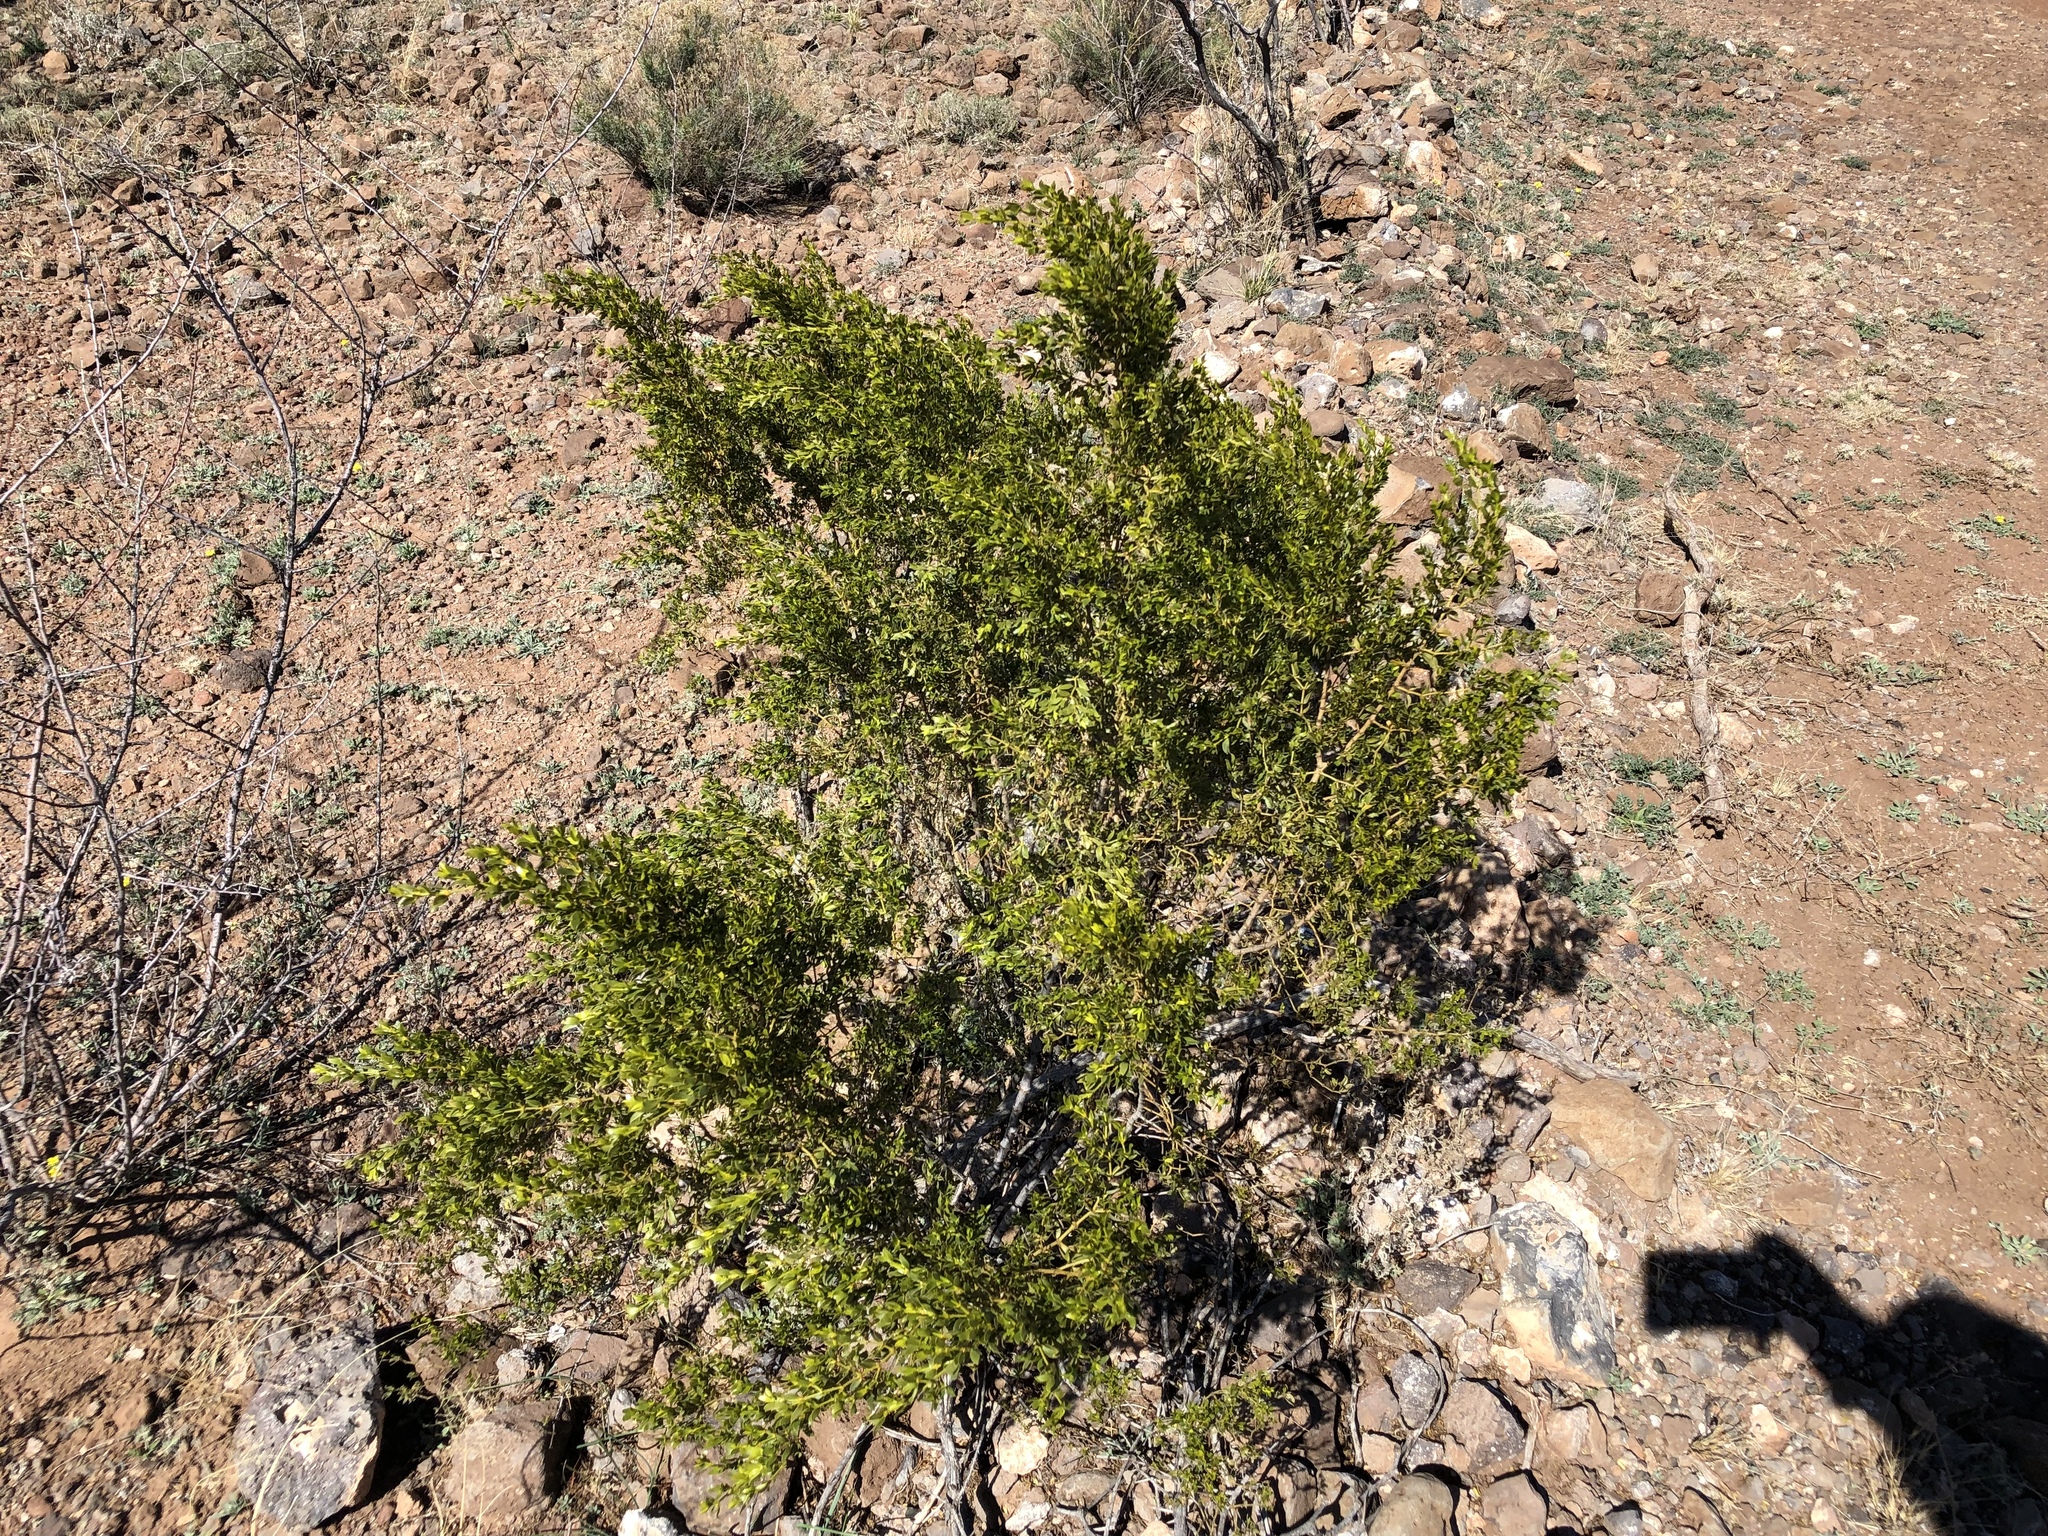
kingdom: Plantae
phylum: Tracheophyta
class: Magnoliopsida
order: Zygophyllales
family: Zygophyllaceae
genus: Larrea
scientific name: Larrea tridentata
